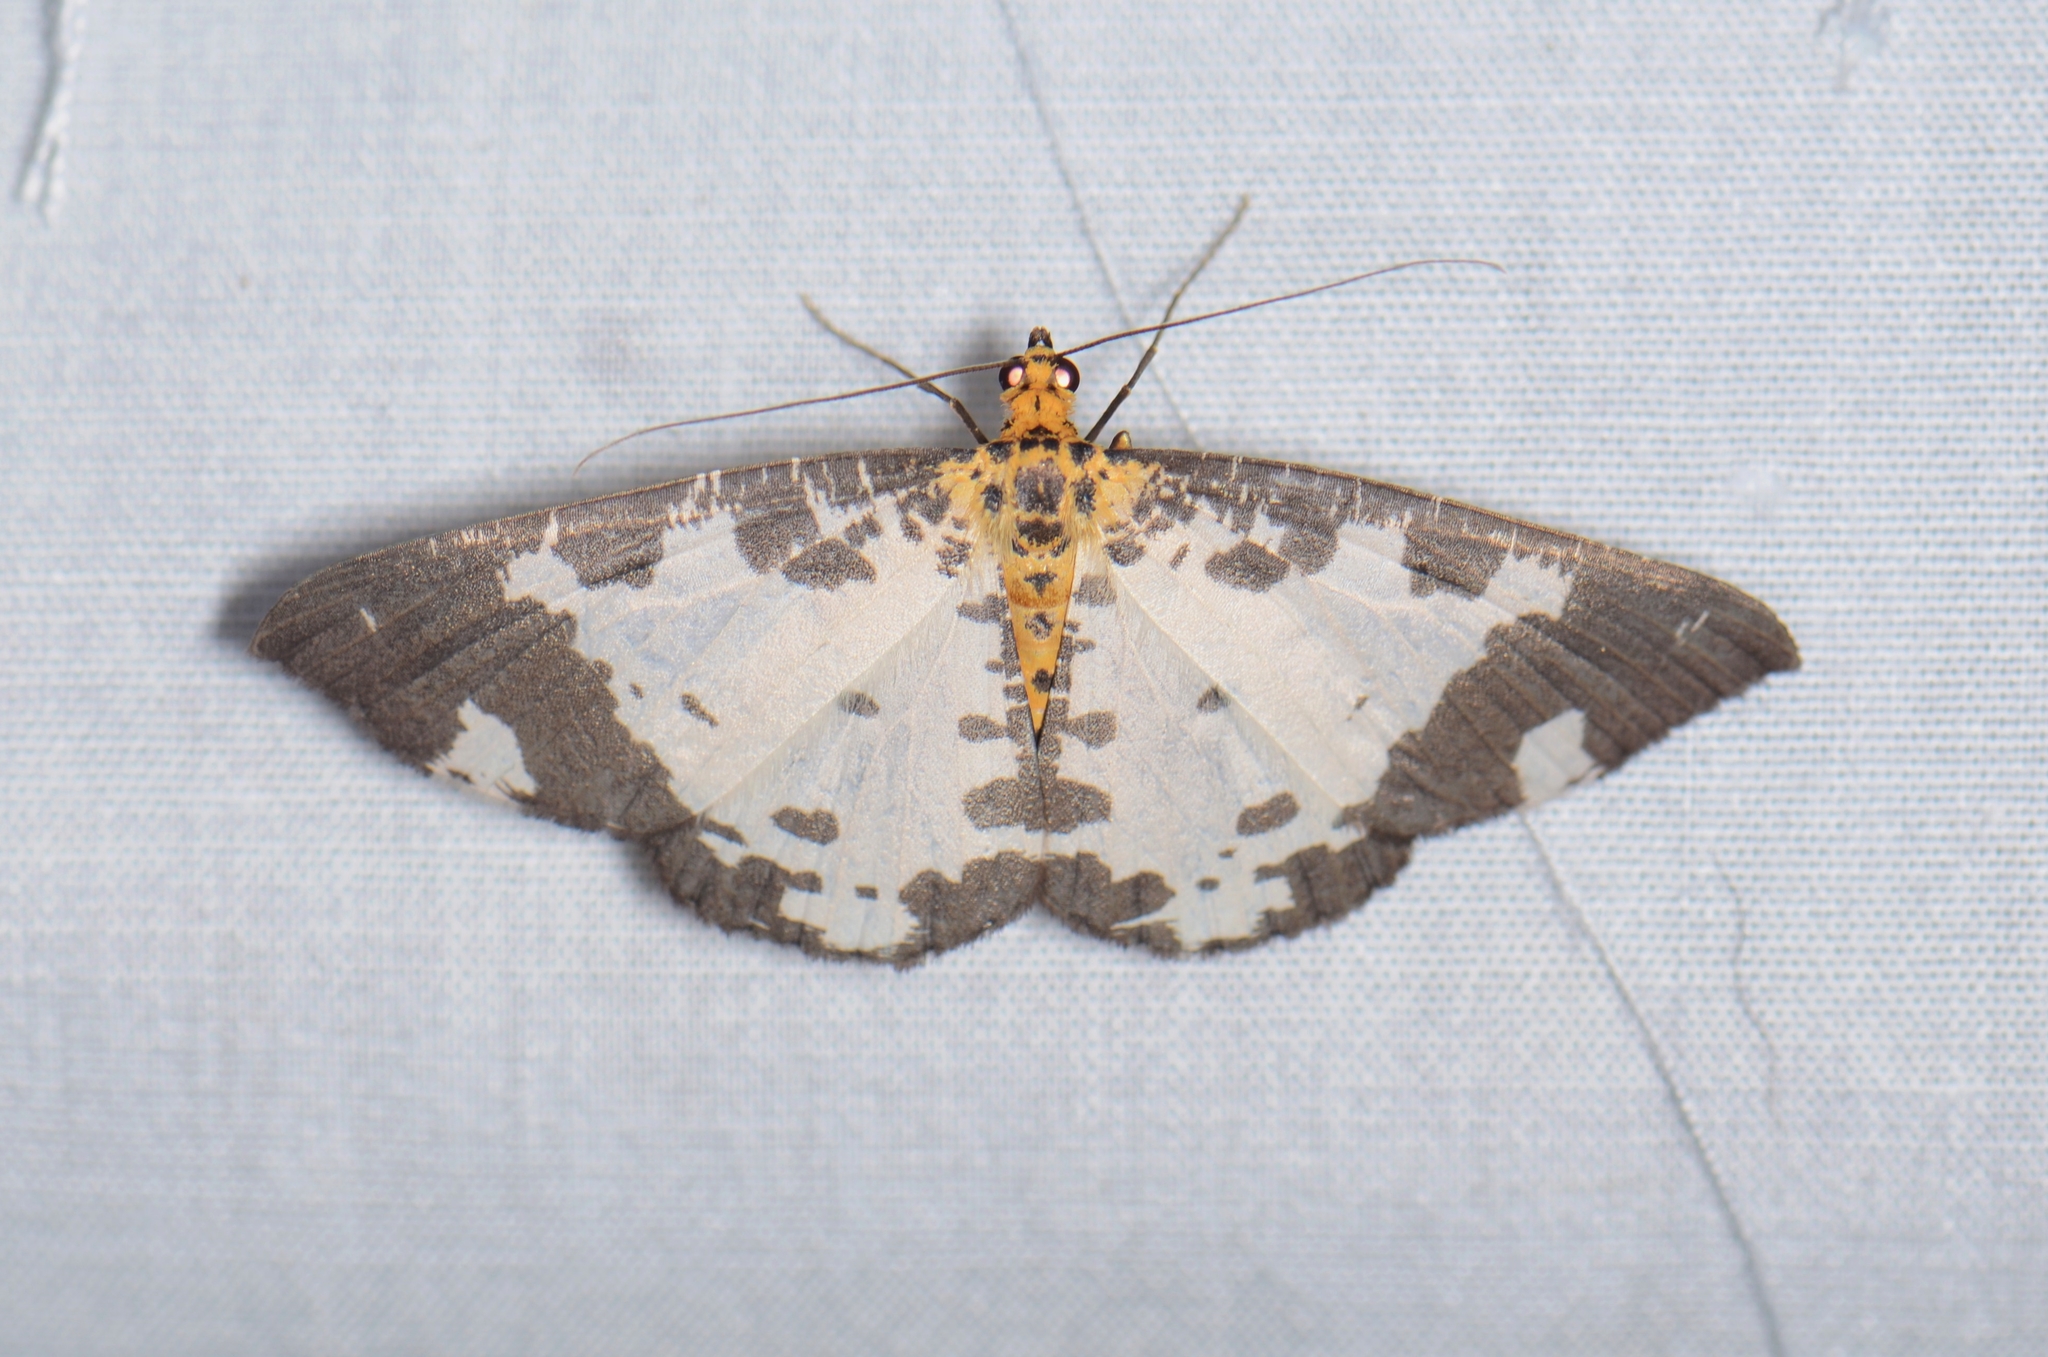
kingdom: Animalia
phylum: Arthropoda
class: Insecta
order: Lepidoptera
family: Geometridae
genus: Ozola
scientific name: Ozola intransilis
